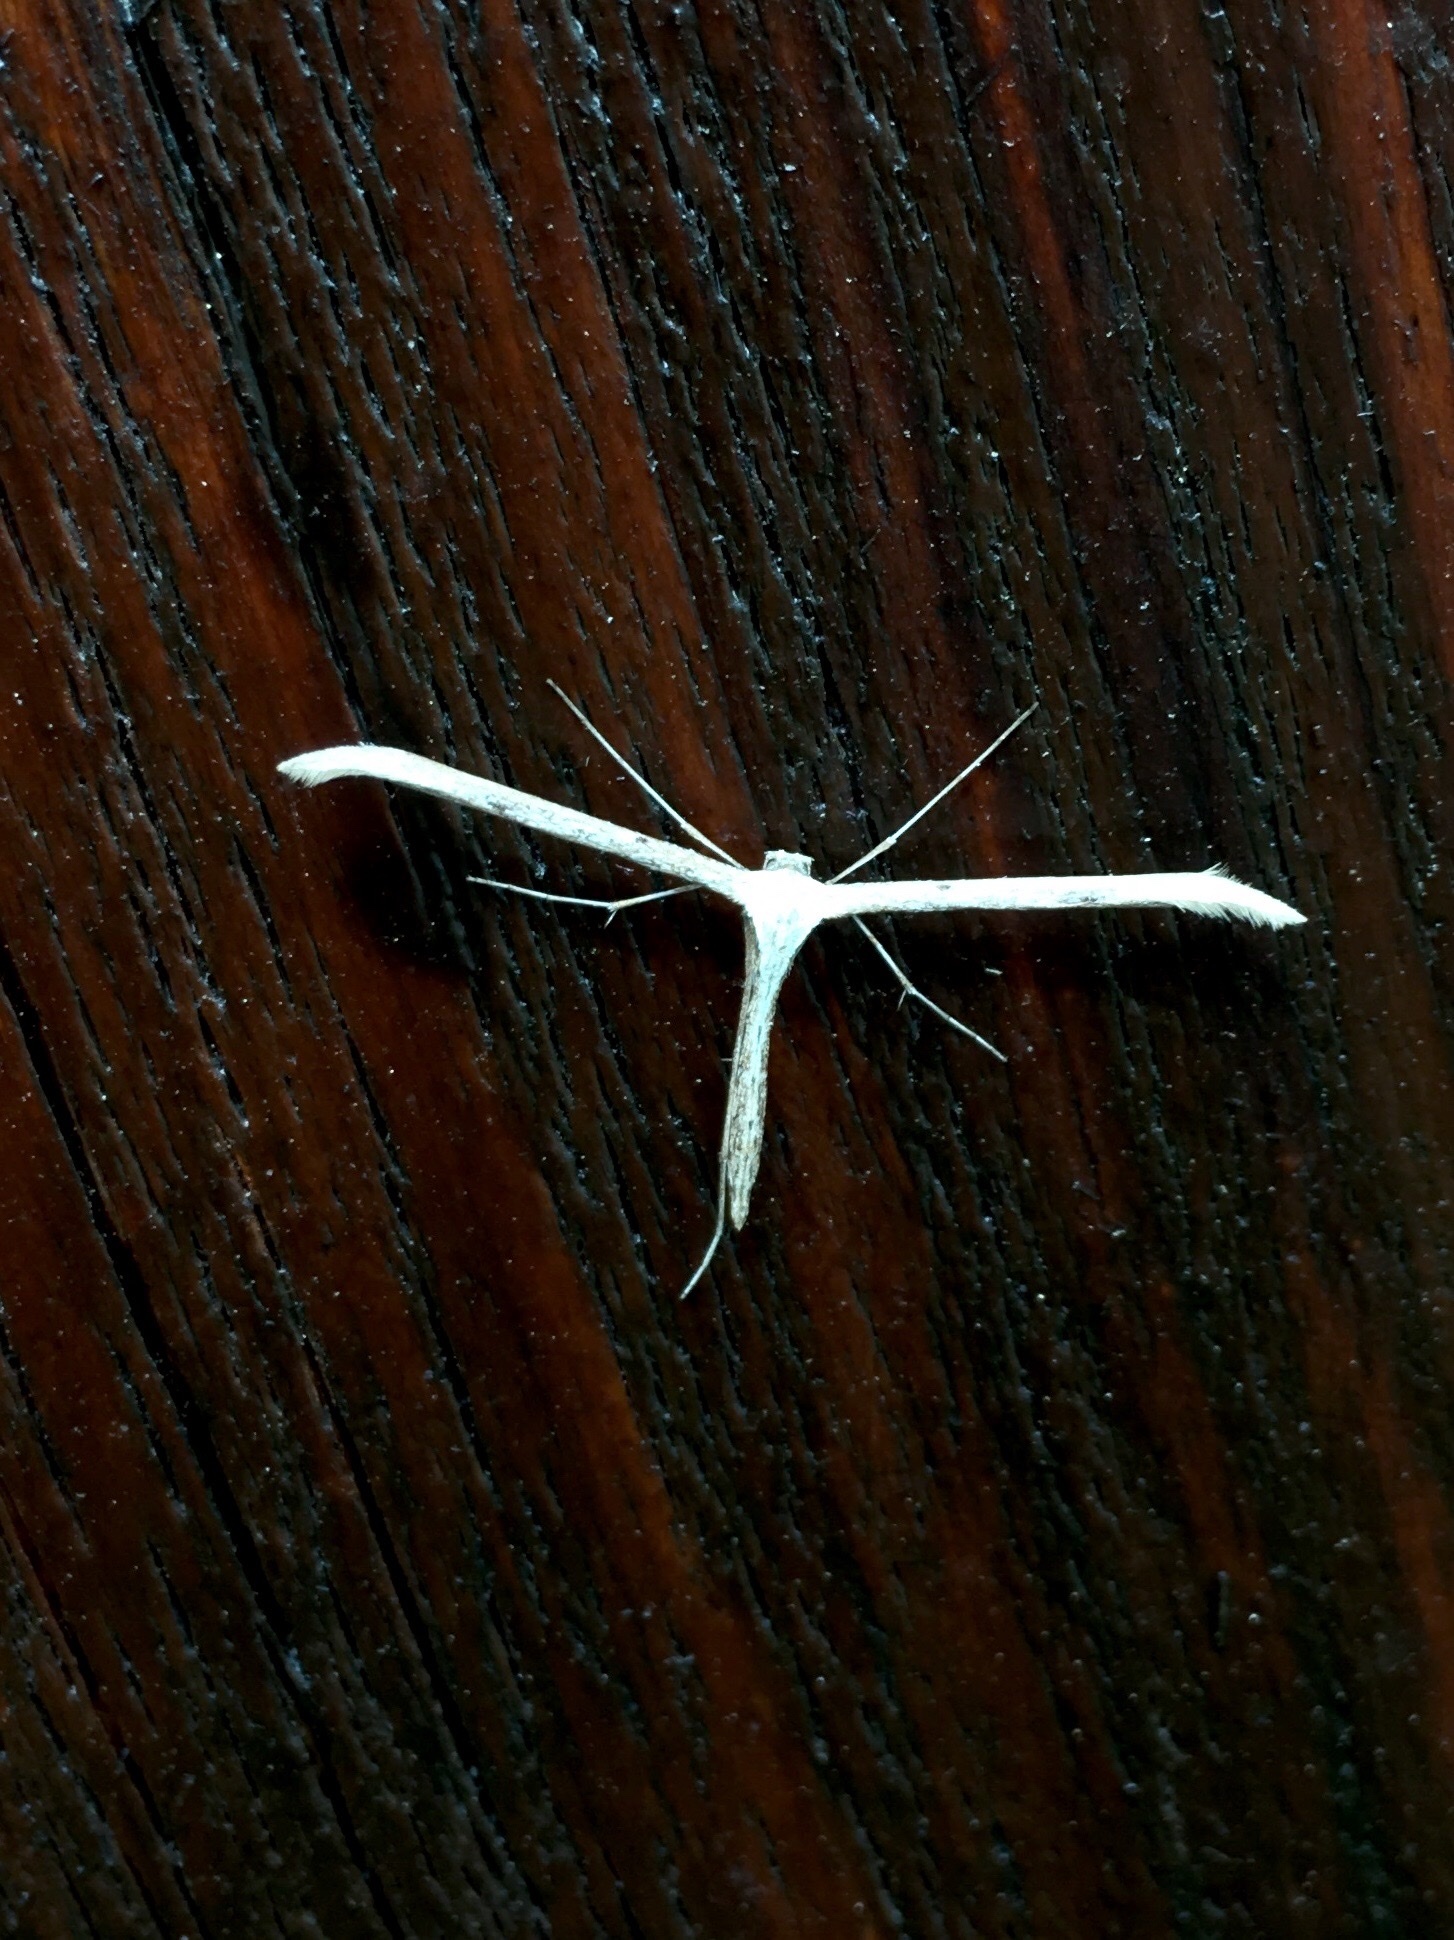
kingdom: Animalia
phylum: Arthropoda
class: Insecta
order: Lepidoptera
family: Pterophoridae
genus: Emmelina
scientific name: Emmelina monodactyla
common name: Common plume
